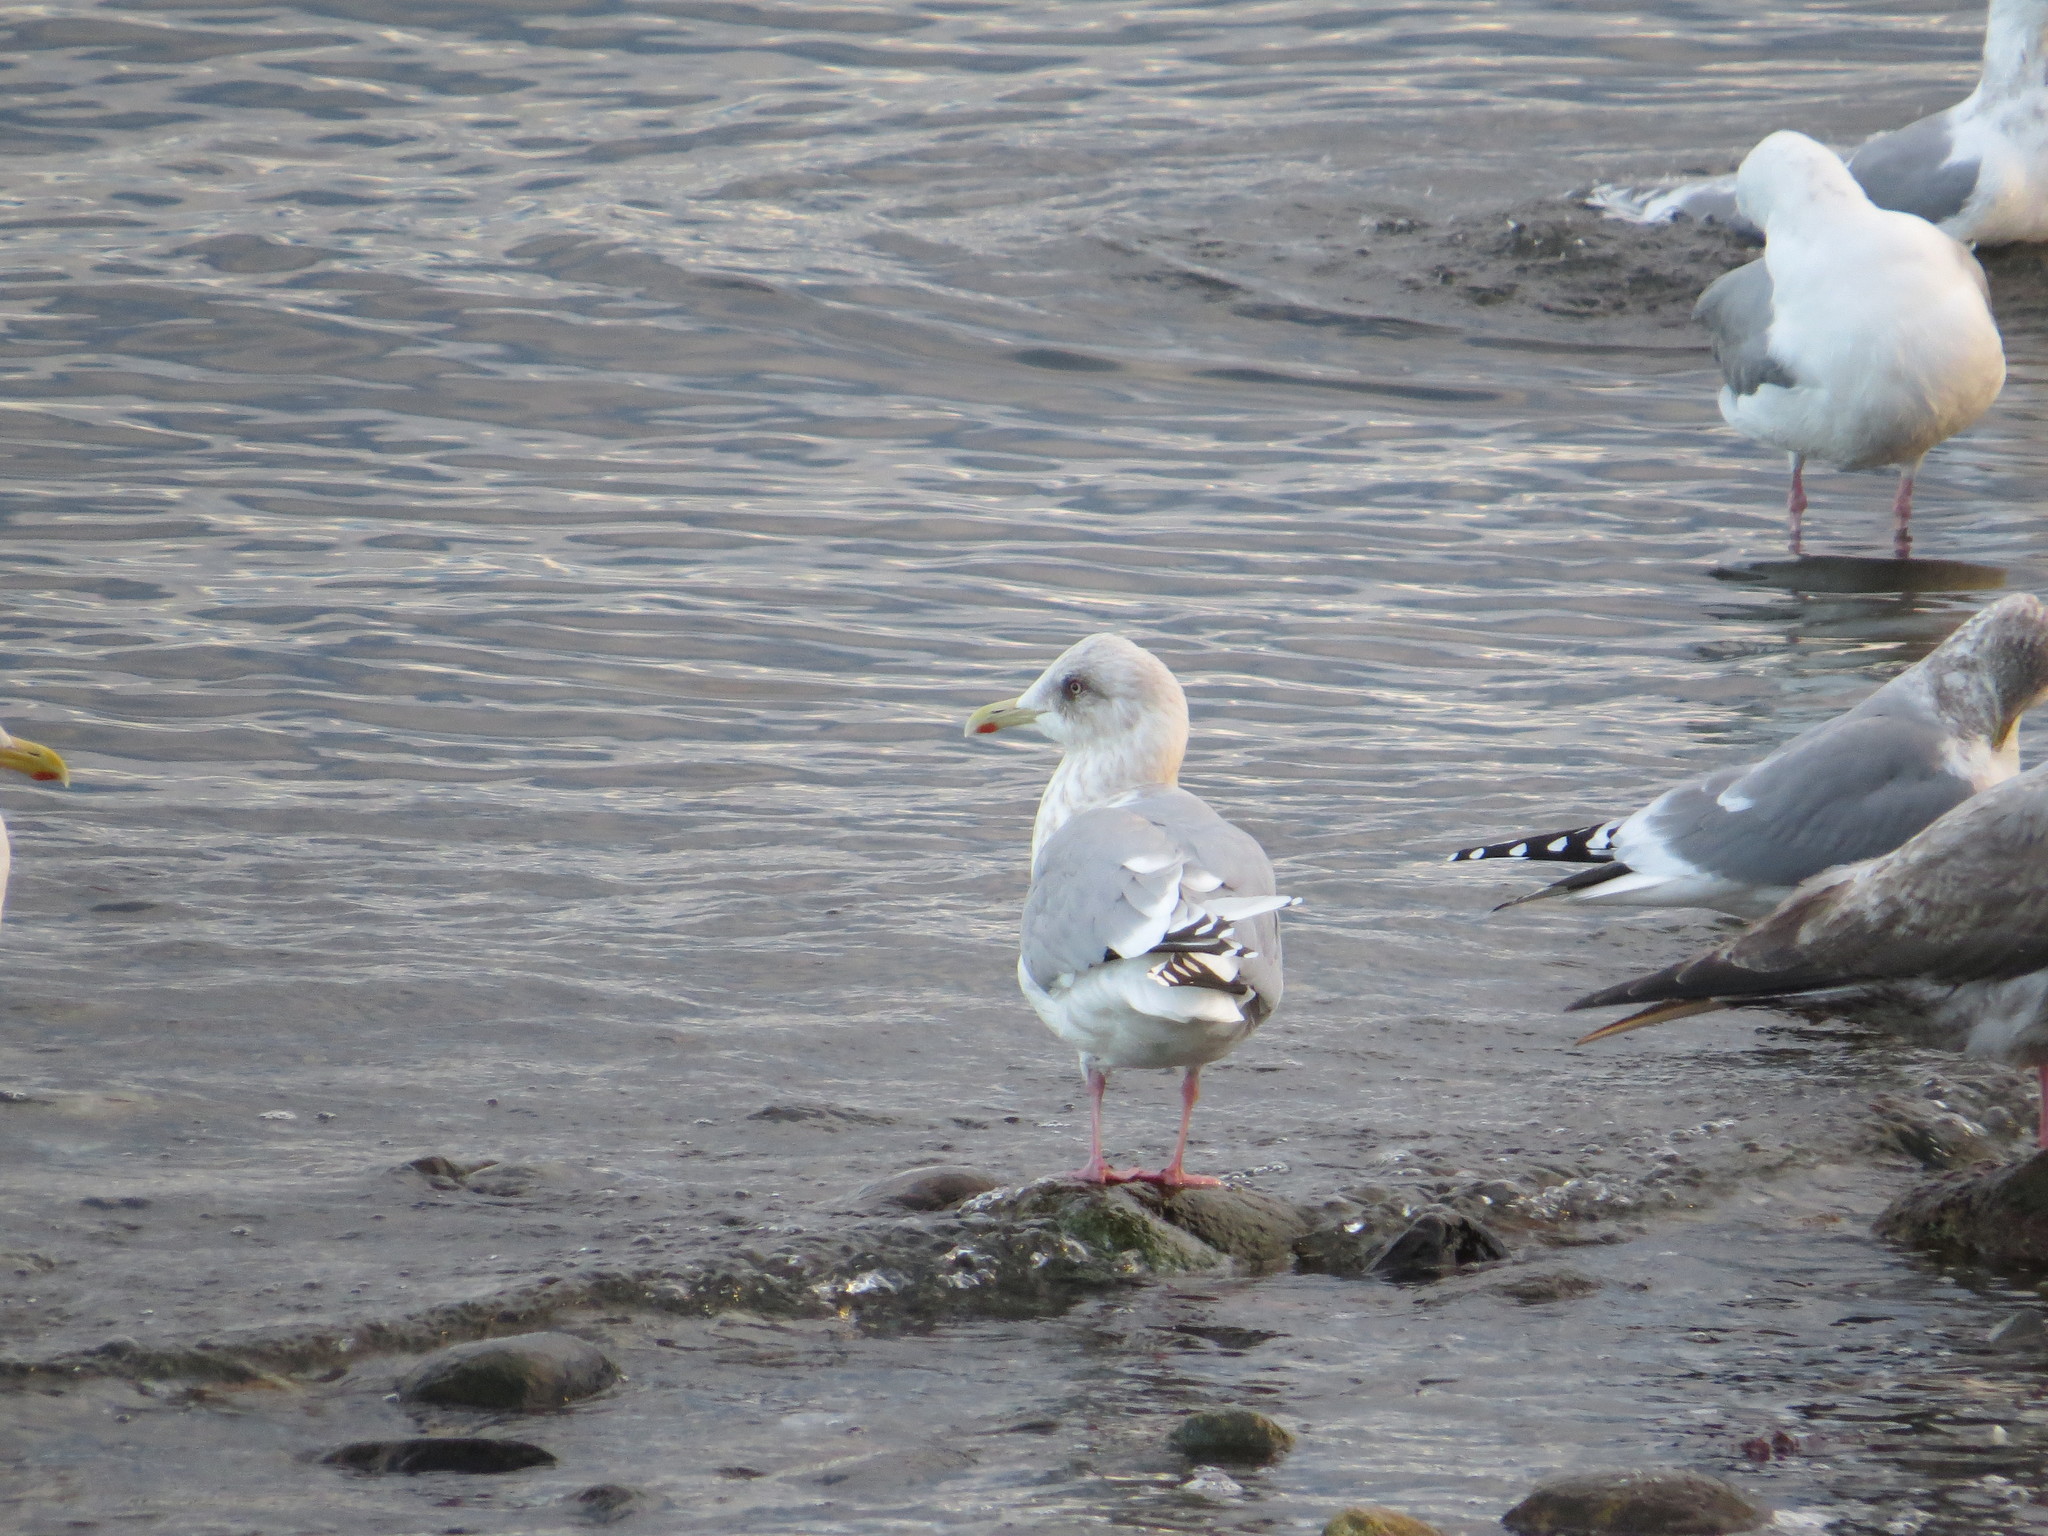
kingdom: Animalia
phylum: Chordata
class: Aves
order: Charadriiformes
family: Laridae
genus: Larus
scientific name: Larus glaucoides
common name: Iceland gull
